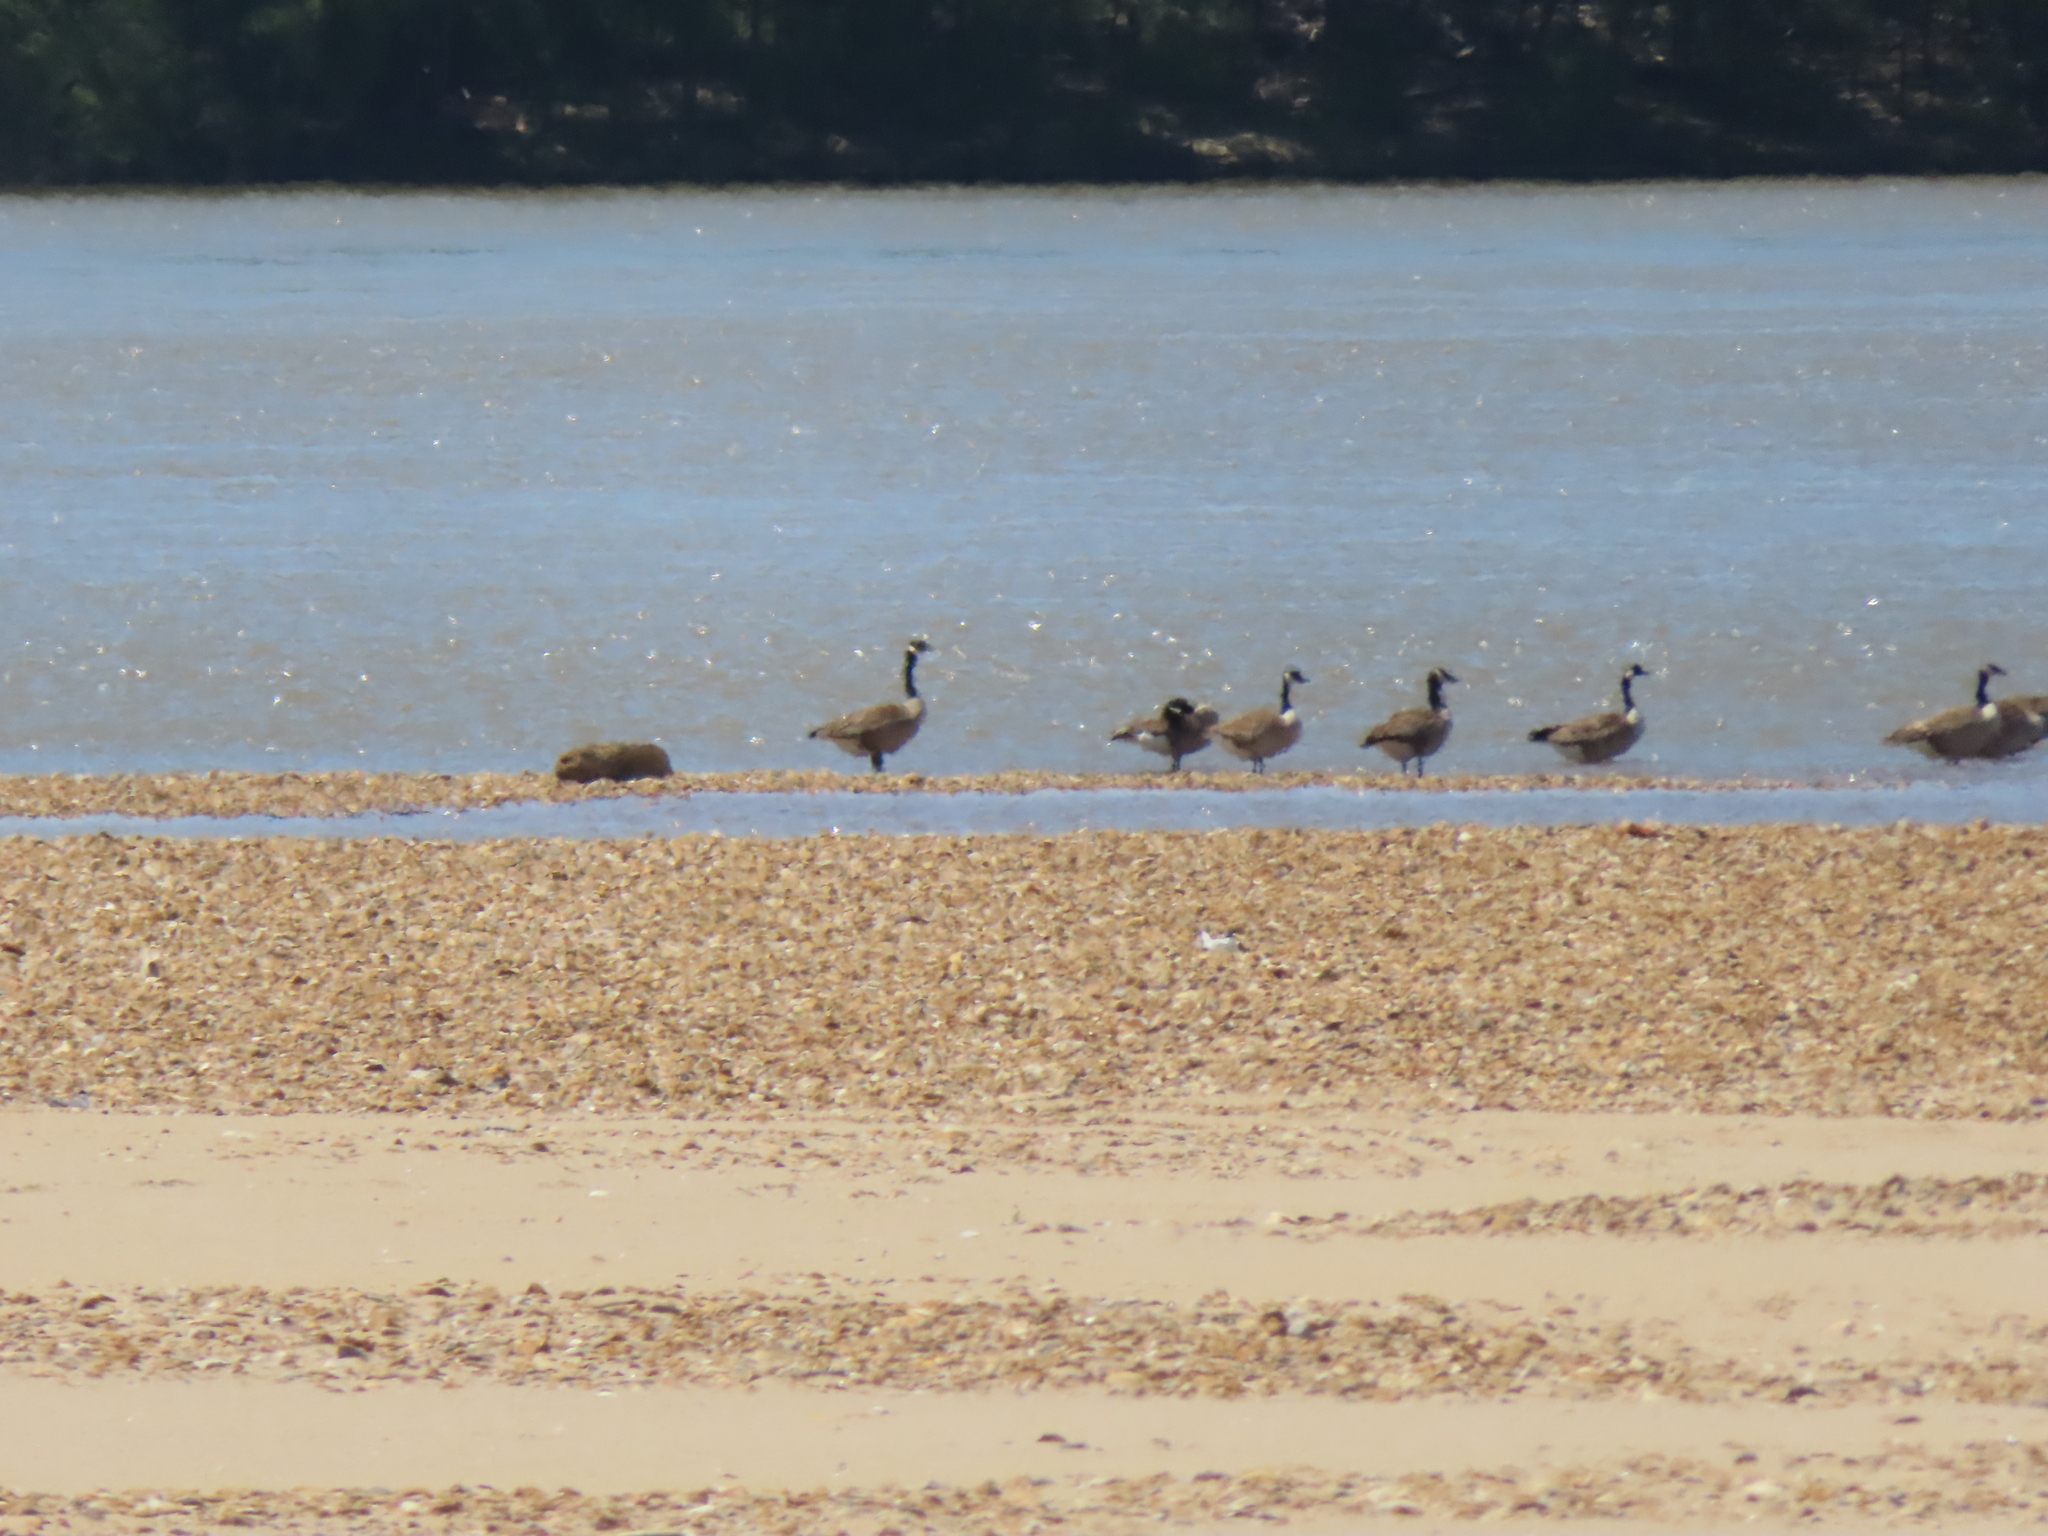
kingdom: Animalia
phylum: Chordata
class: Aves
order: Anseriformes
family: Anatidae
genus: Branta
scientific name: Branta canadensis
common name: Canada goose
